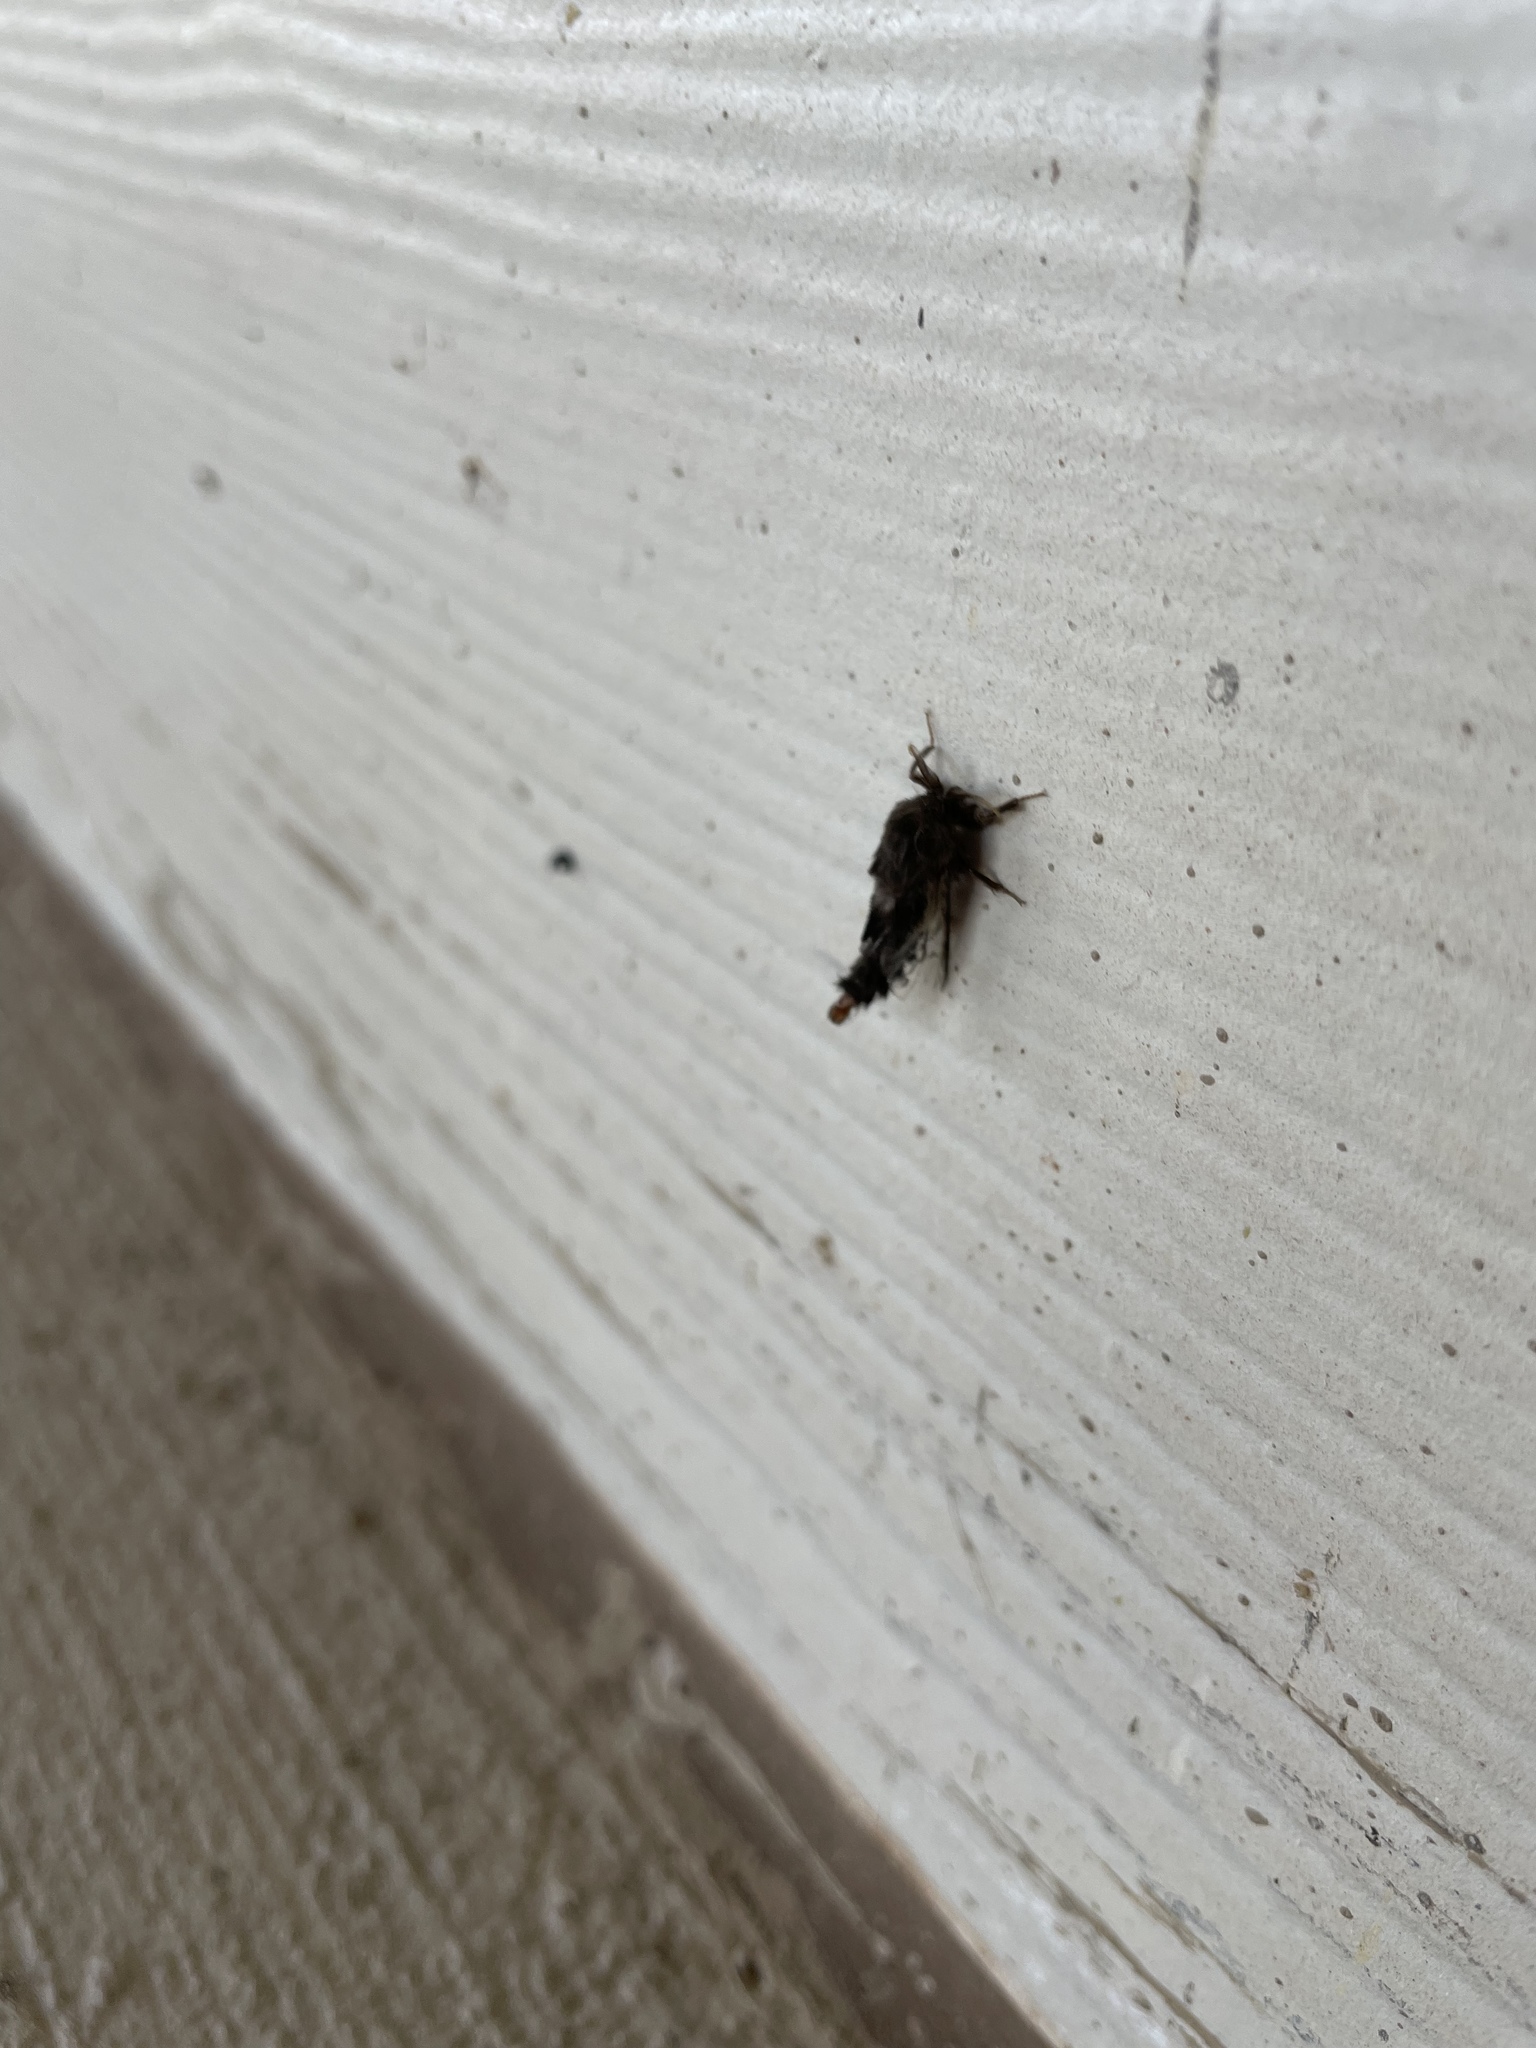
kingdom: Animalia
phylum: Arthropoda
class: Insecta
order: Lepidoptera
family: Psychidae
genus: Thyridopteryx
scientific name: Thyridopteryx ephemeraeformis
